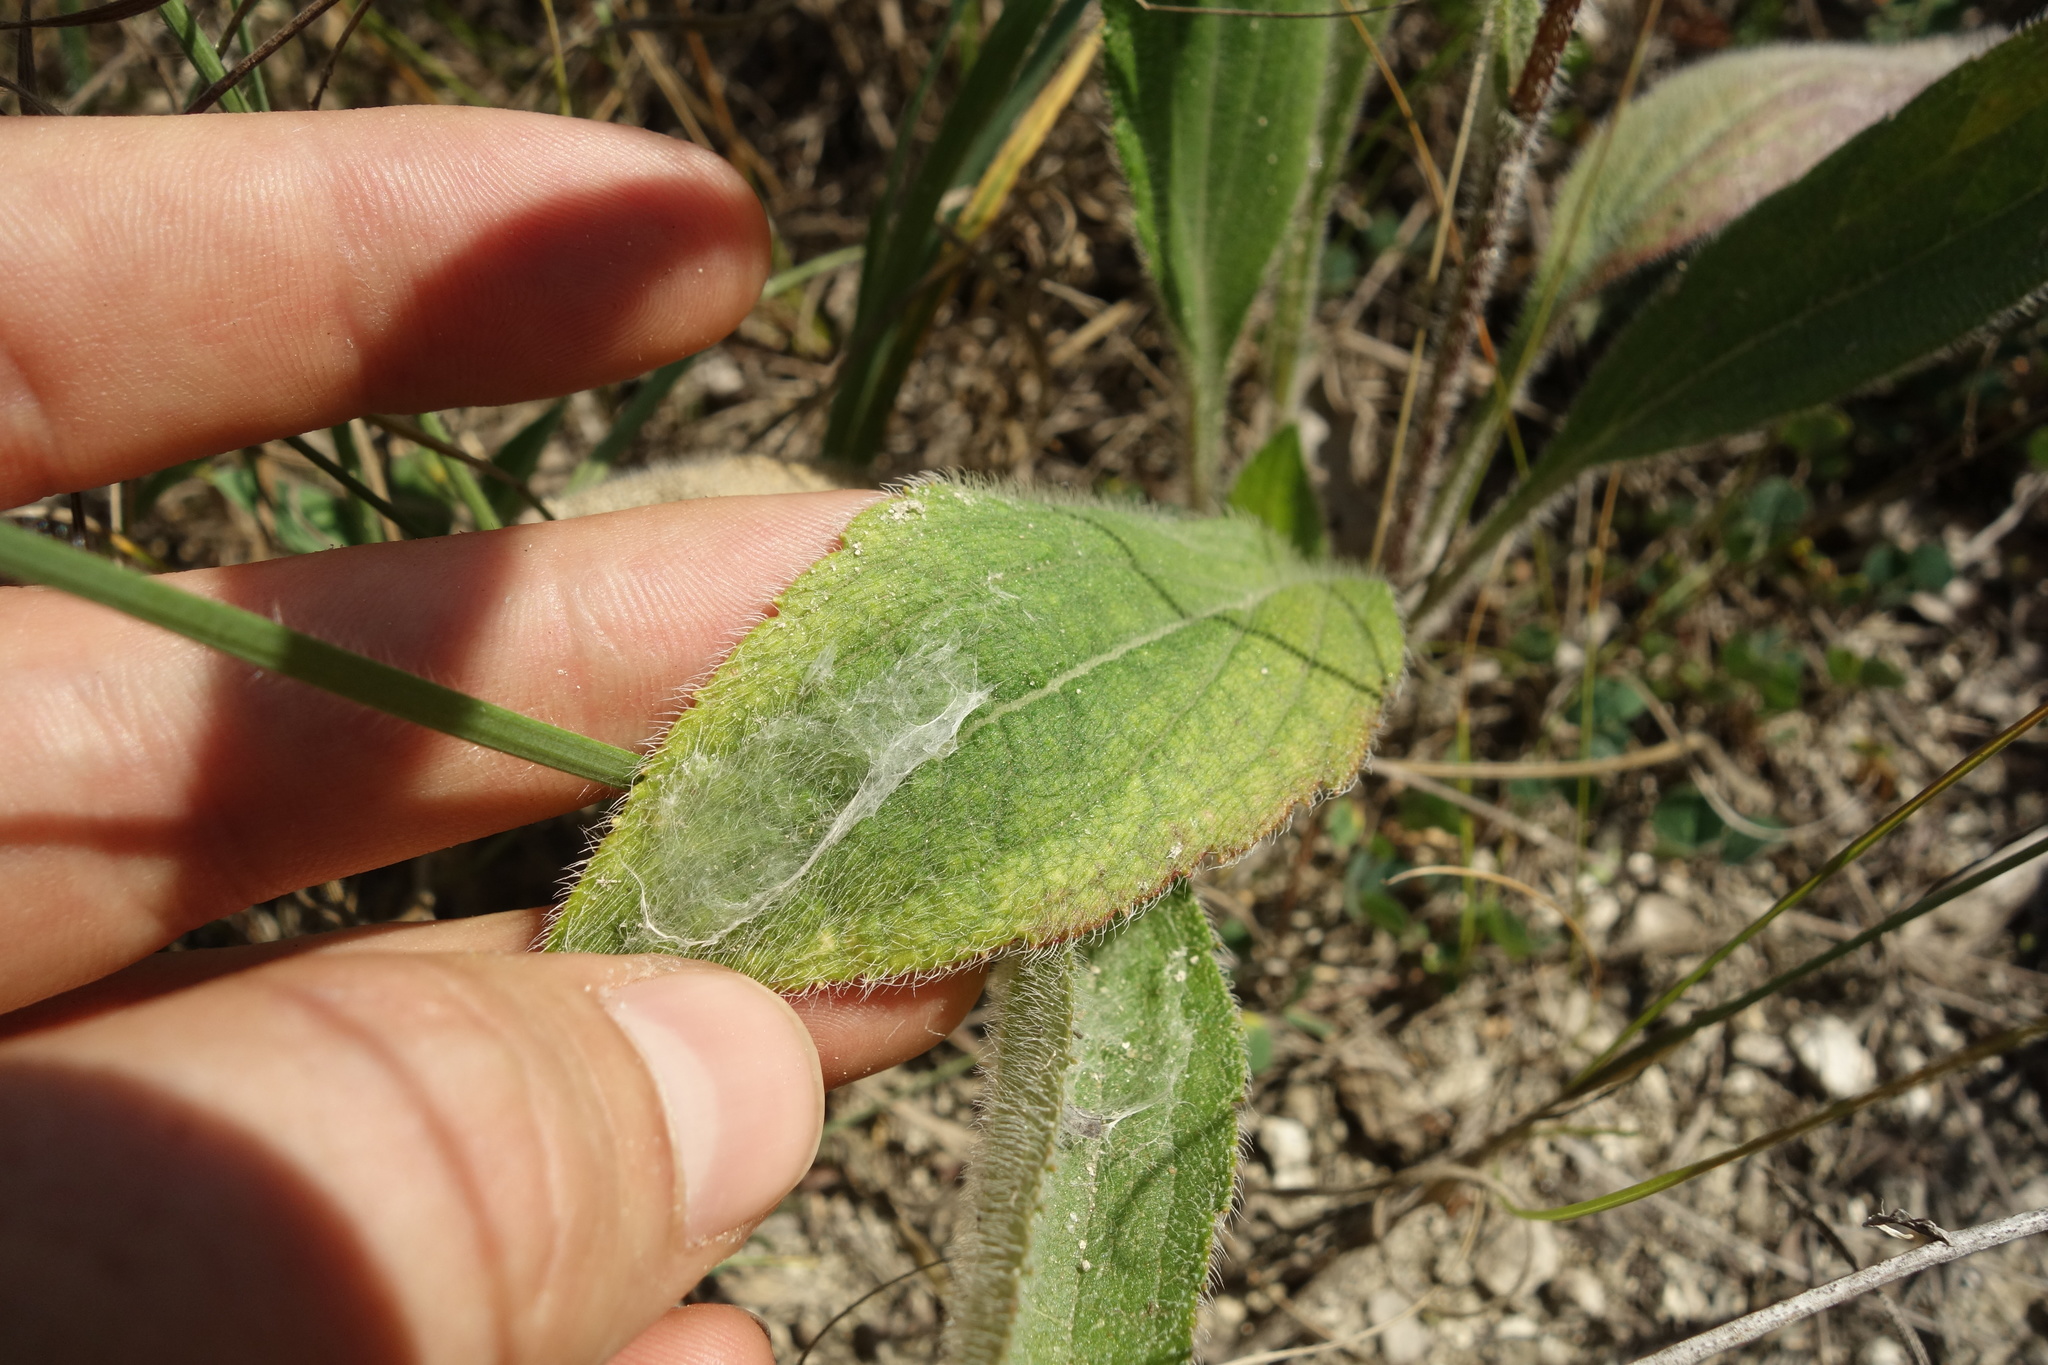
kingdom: Plantae
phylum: Tracheophyta
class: Magnoliopsida
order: Asterales
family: Asteraceae
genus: Rudbeckia
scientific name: Rudbeckia hirta
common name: Black-eyed-susan
